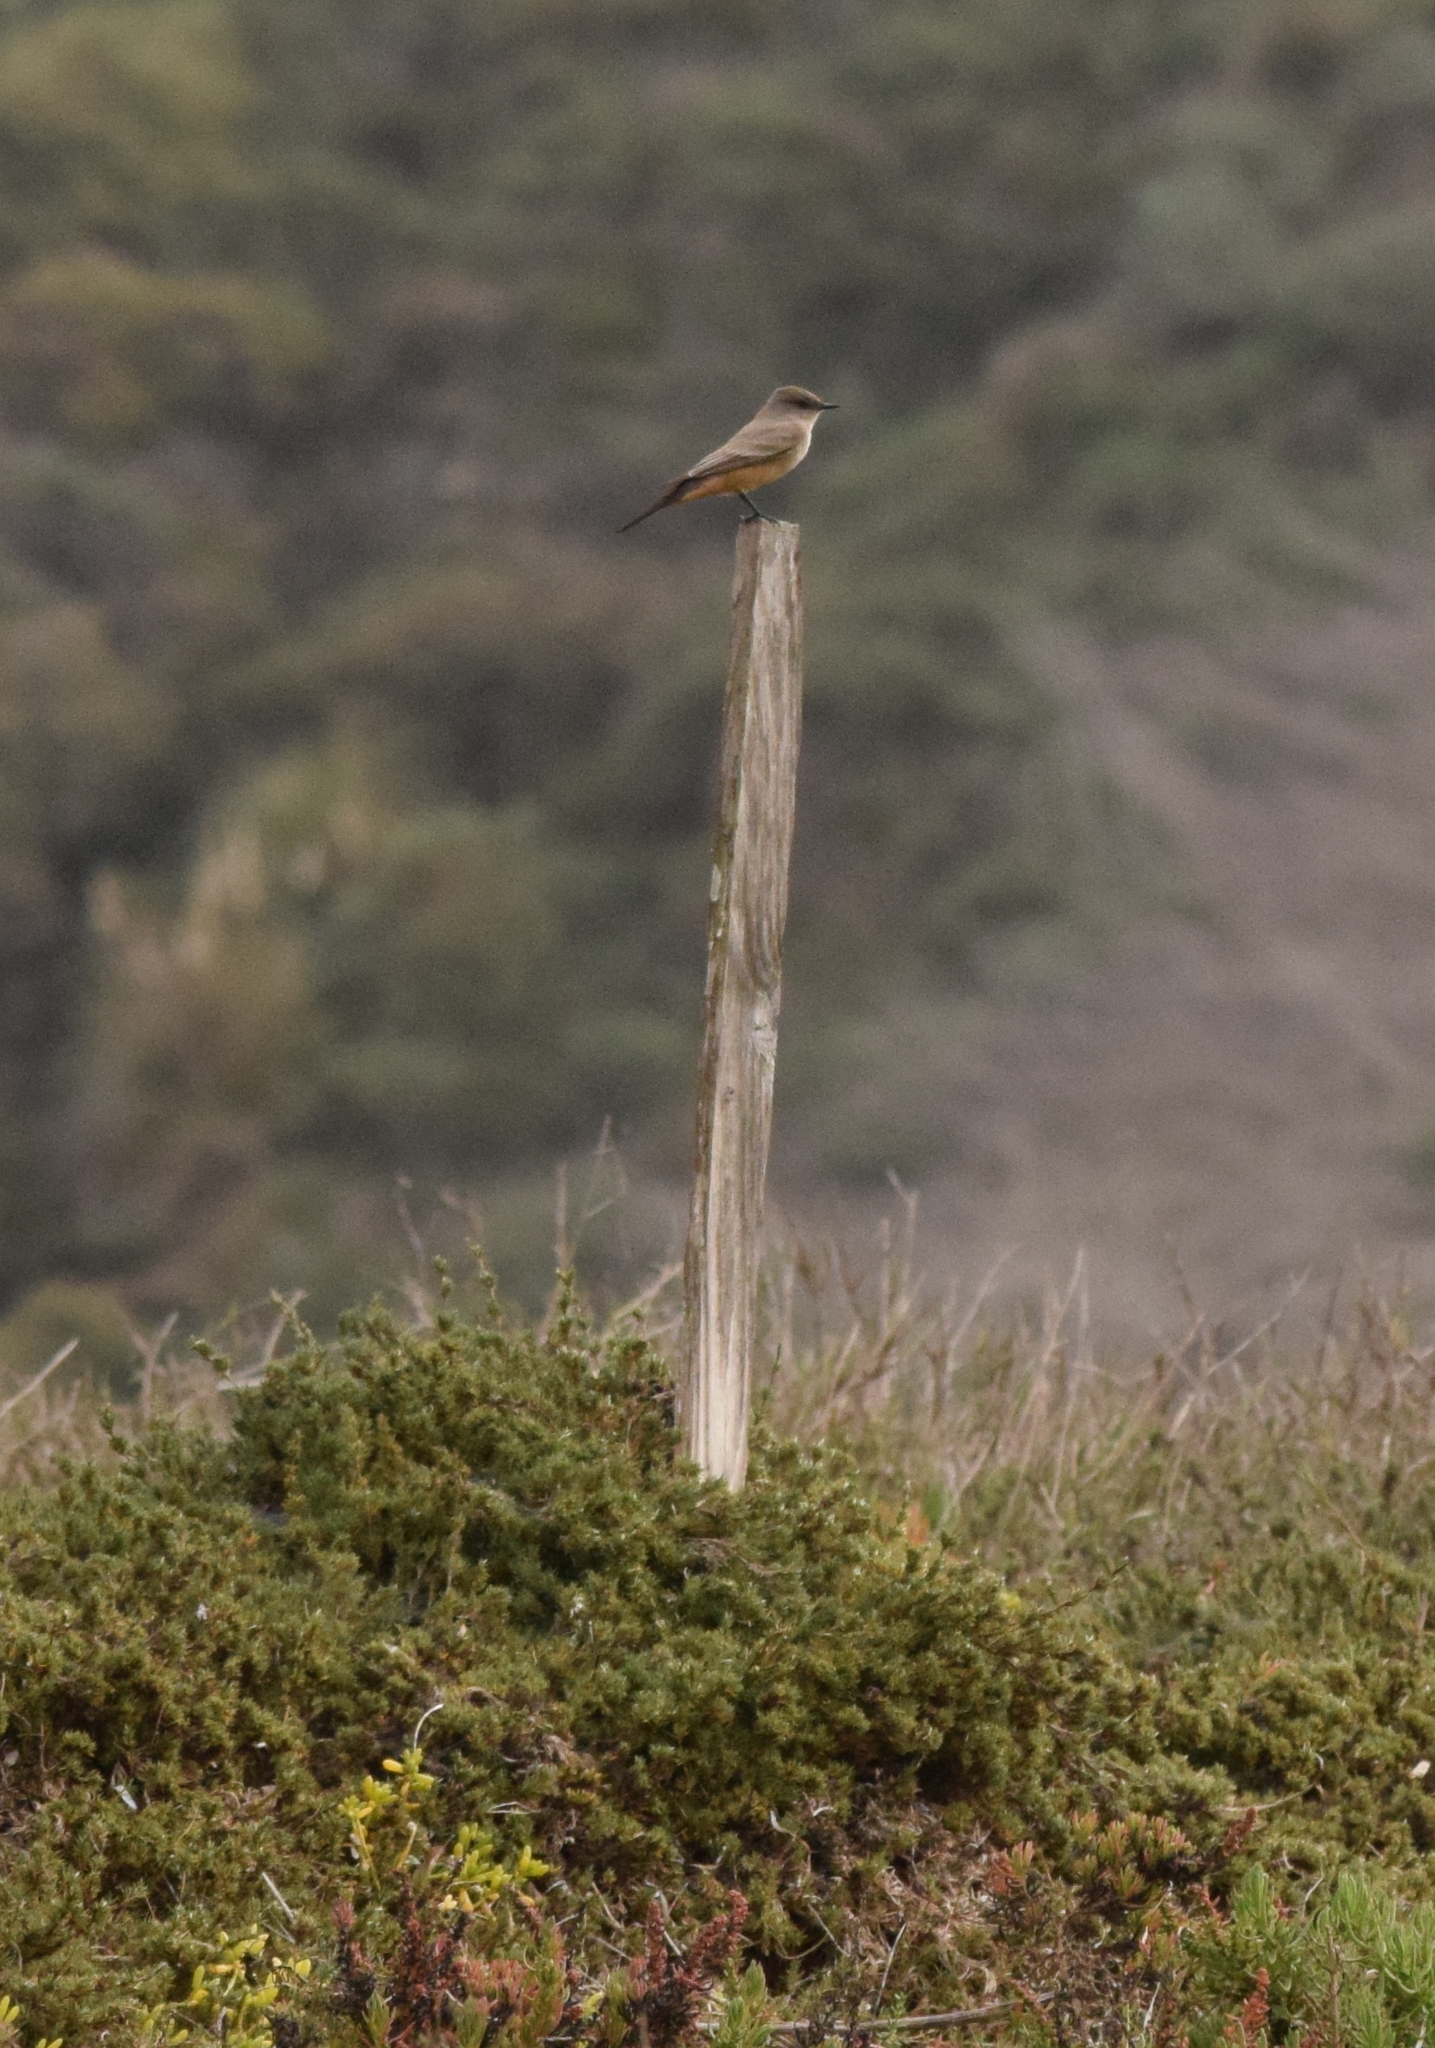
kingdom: Animalia
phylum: Chordata
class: Aves
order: Passeriformes
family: Tyrannidae
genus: Sayornis
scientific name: Sayornis saya
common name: Say's phoebe
